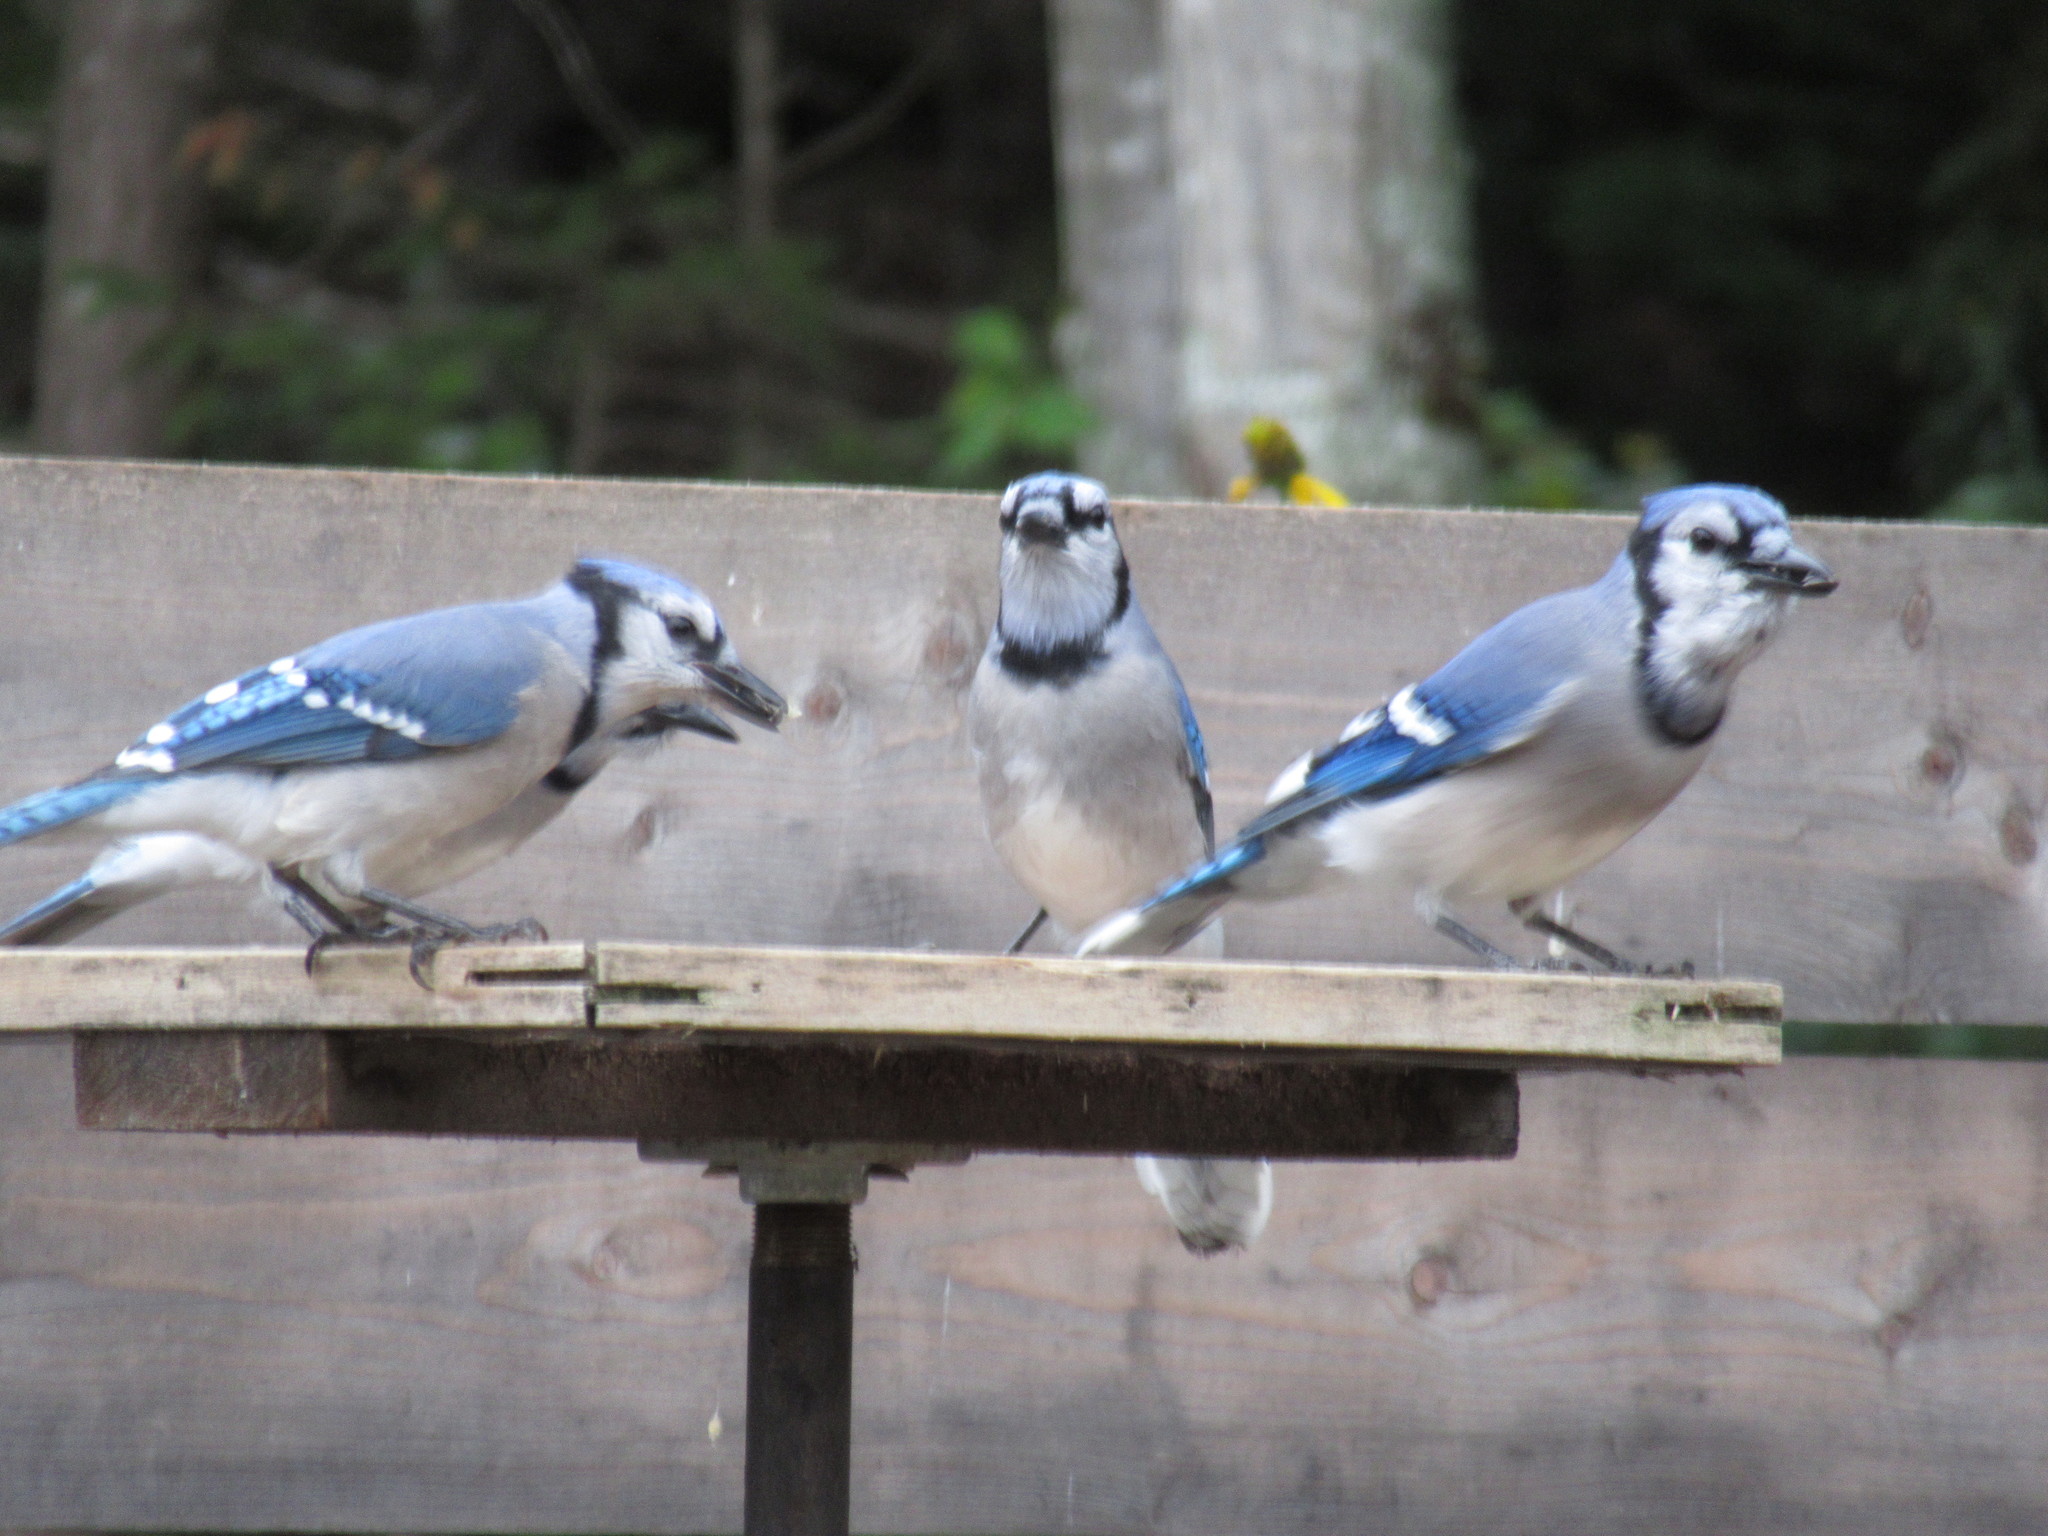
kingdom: Animalia
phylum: Chordata
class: Aves
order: Passeriformes
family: Corvidae
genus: Cyanocitta
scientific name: Cyanocitta cristata
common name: Blue jay
